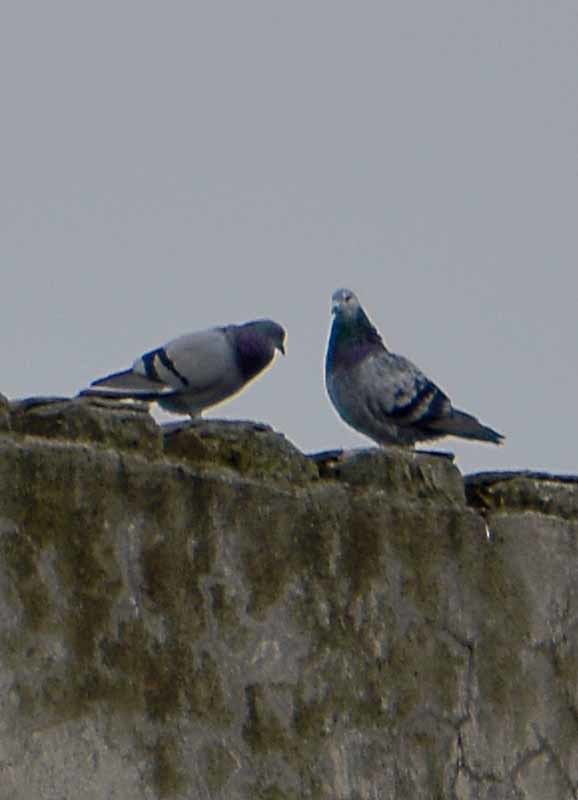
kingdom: Animalia
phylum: Chordata
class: Aves
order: Columbiformes
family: Columbidae
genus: Columba
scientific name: Columba livia
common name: Rock pigeon
